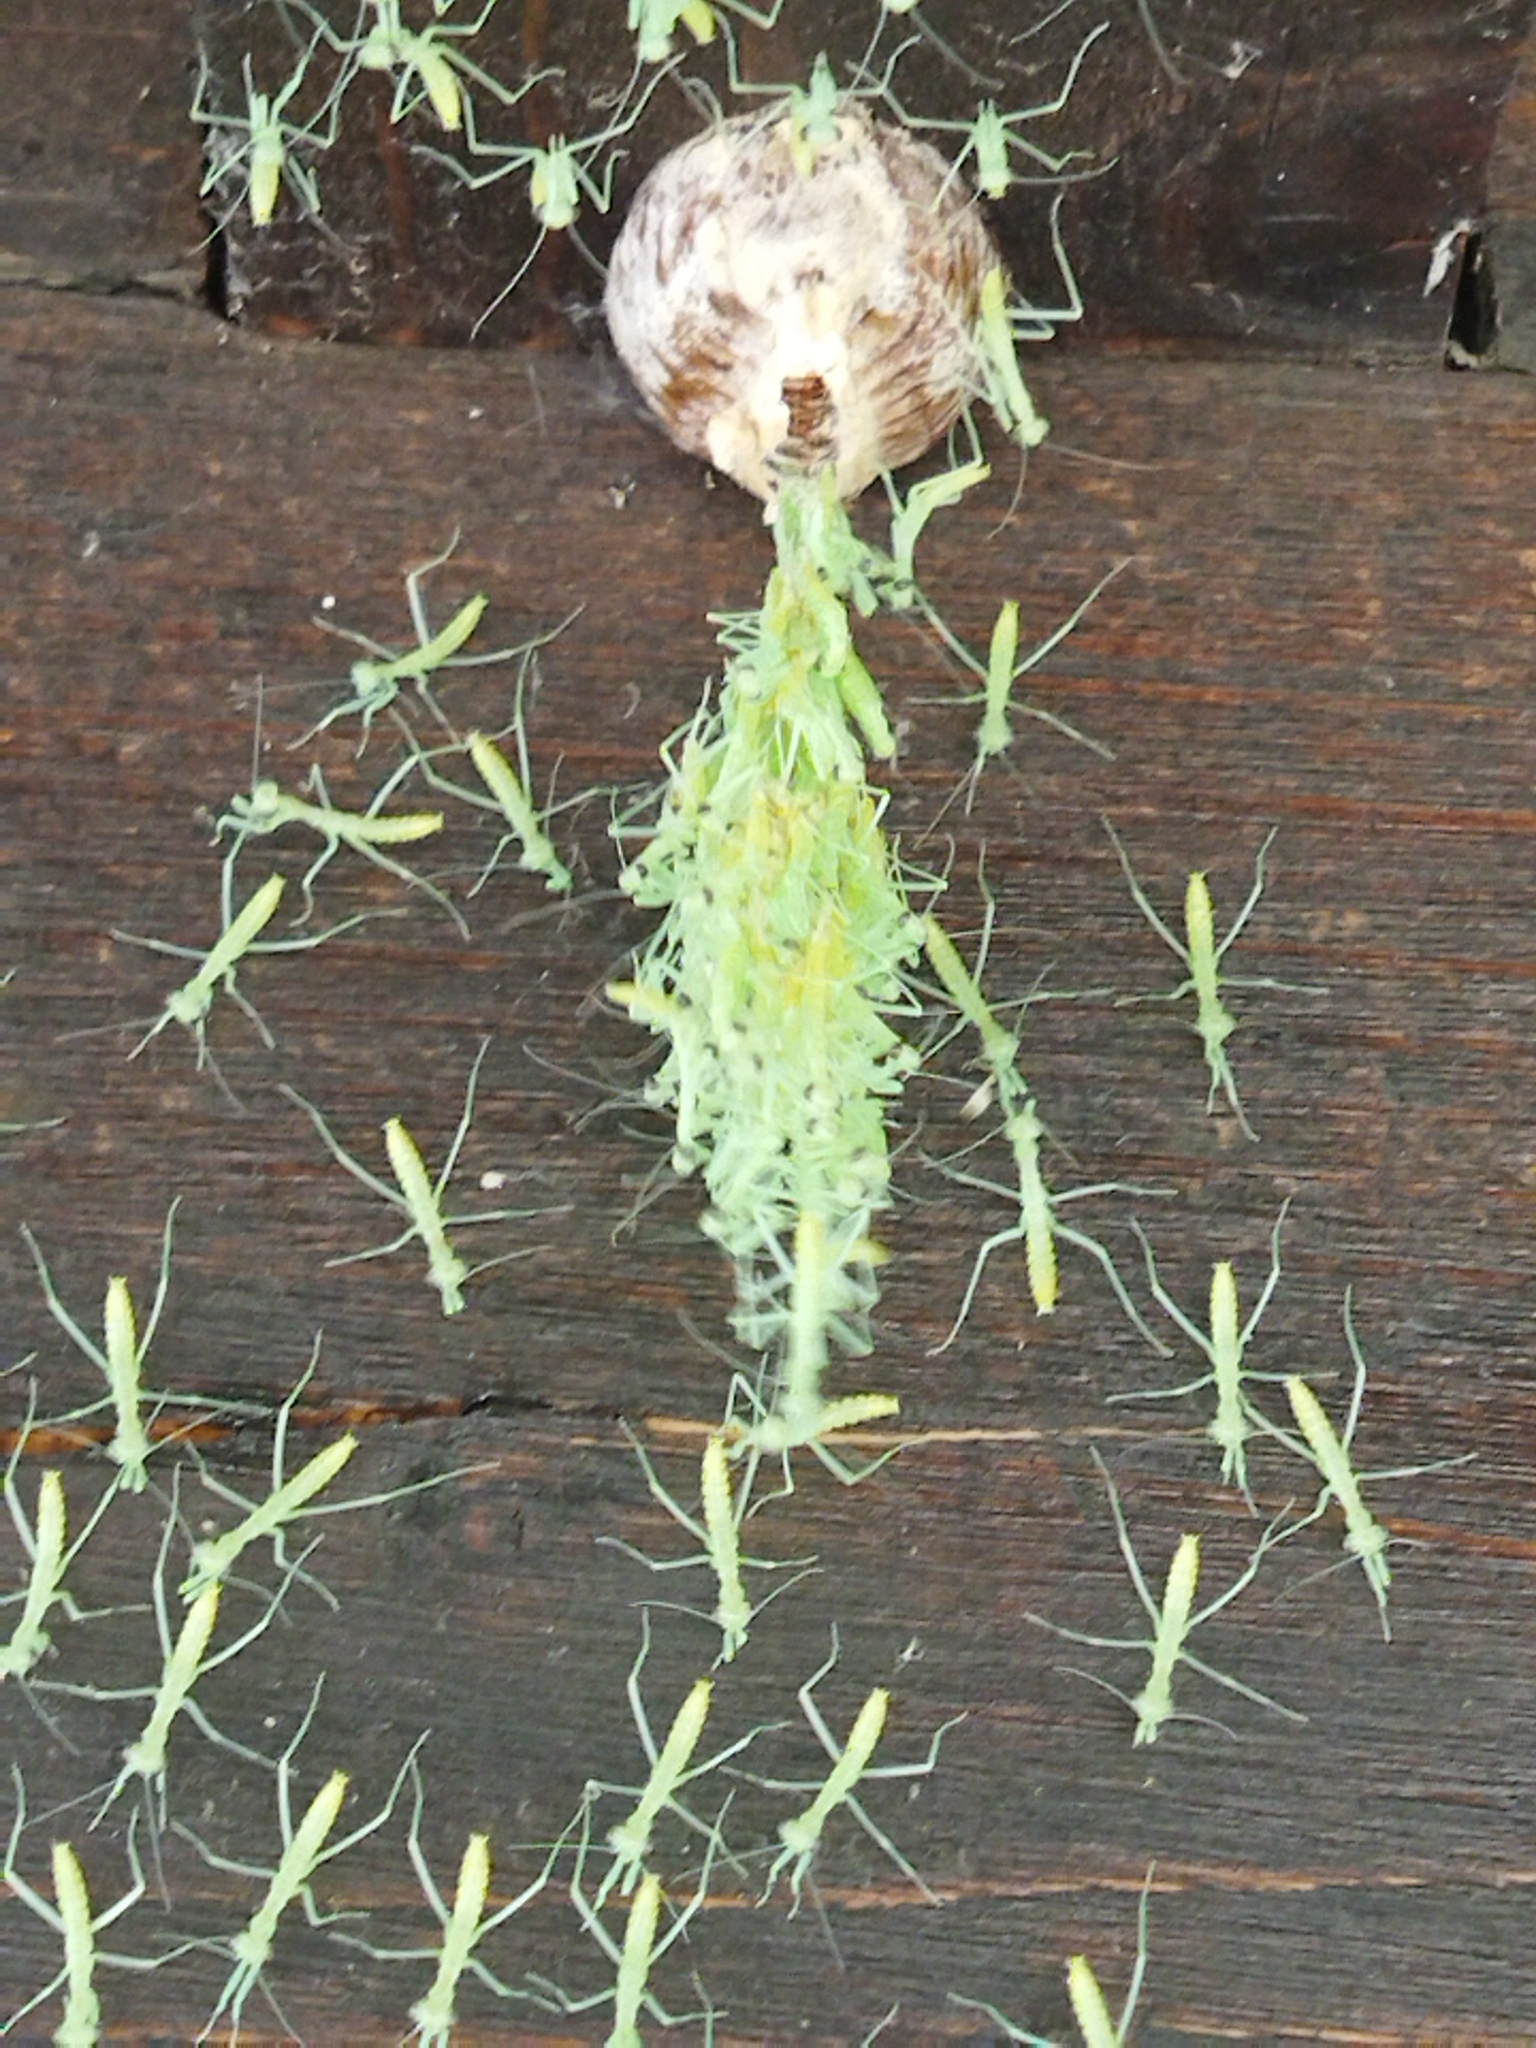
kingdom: Animalia
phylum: Arthropoda
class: Insecta
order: Mantodea
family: Mantidae
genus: Hierodula
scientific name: Hierodula transcaucasica
